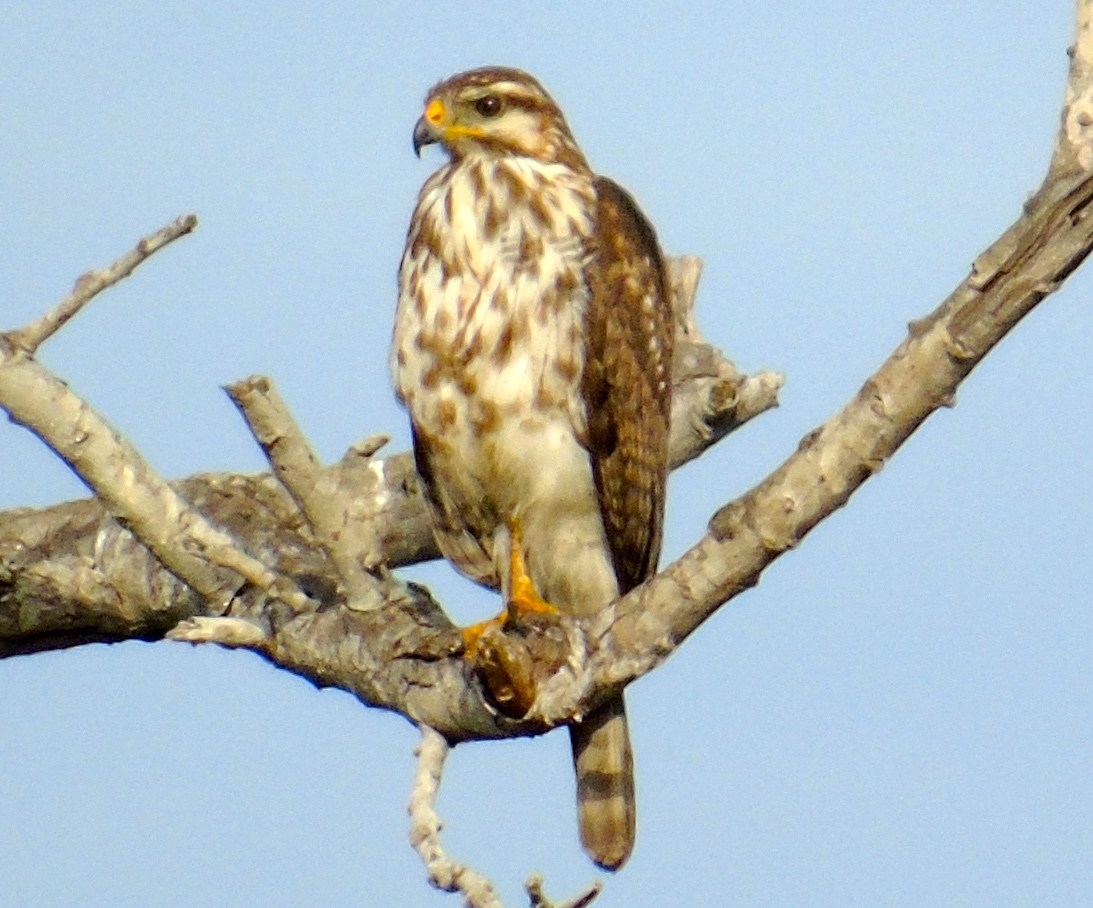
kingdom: Animalia
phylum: Chordata
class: Aves
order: Accipitriformes
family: Accipitridae
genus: Buteo
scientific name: Buteo nitidus
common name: Grey-lined hawk
